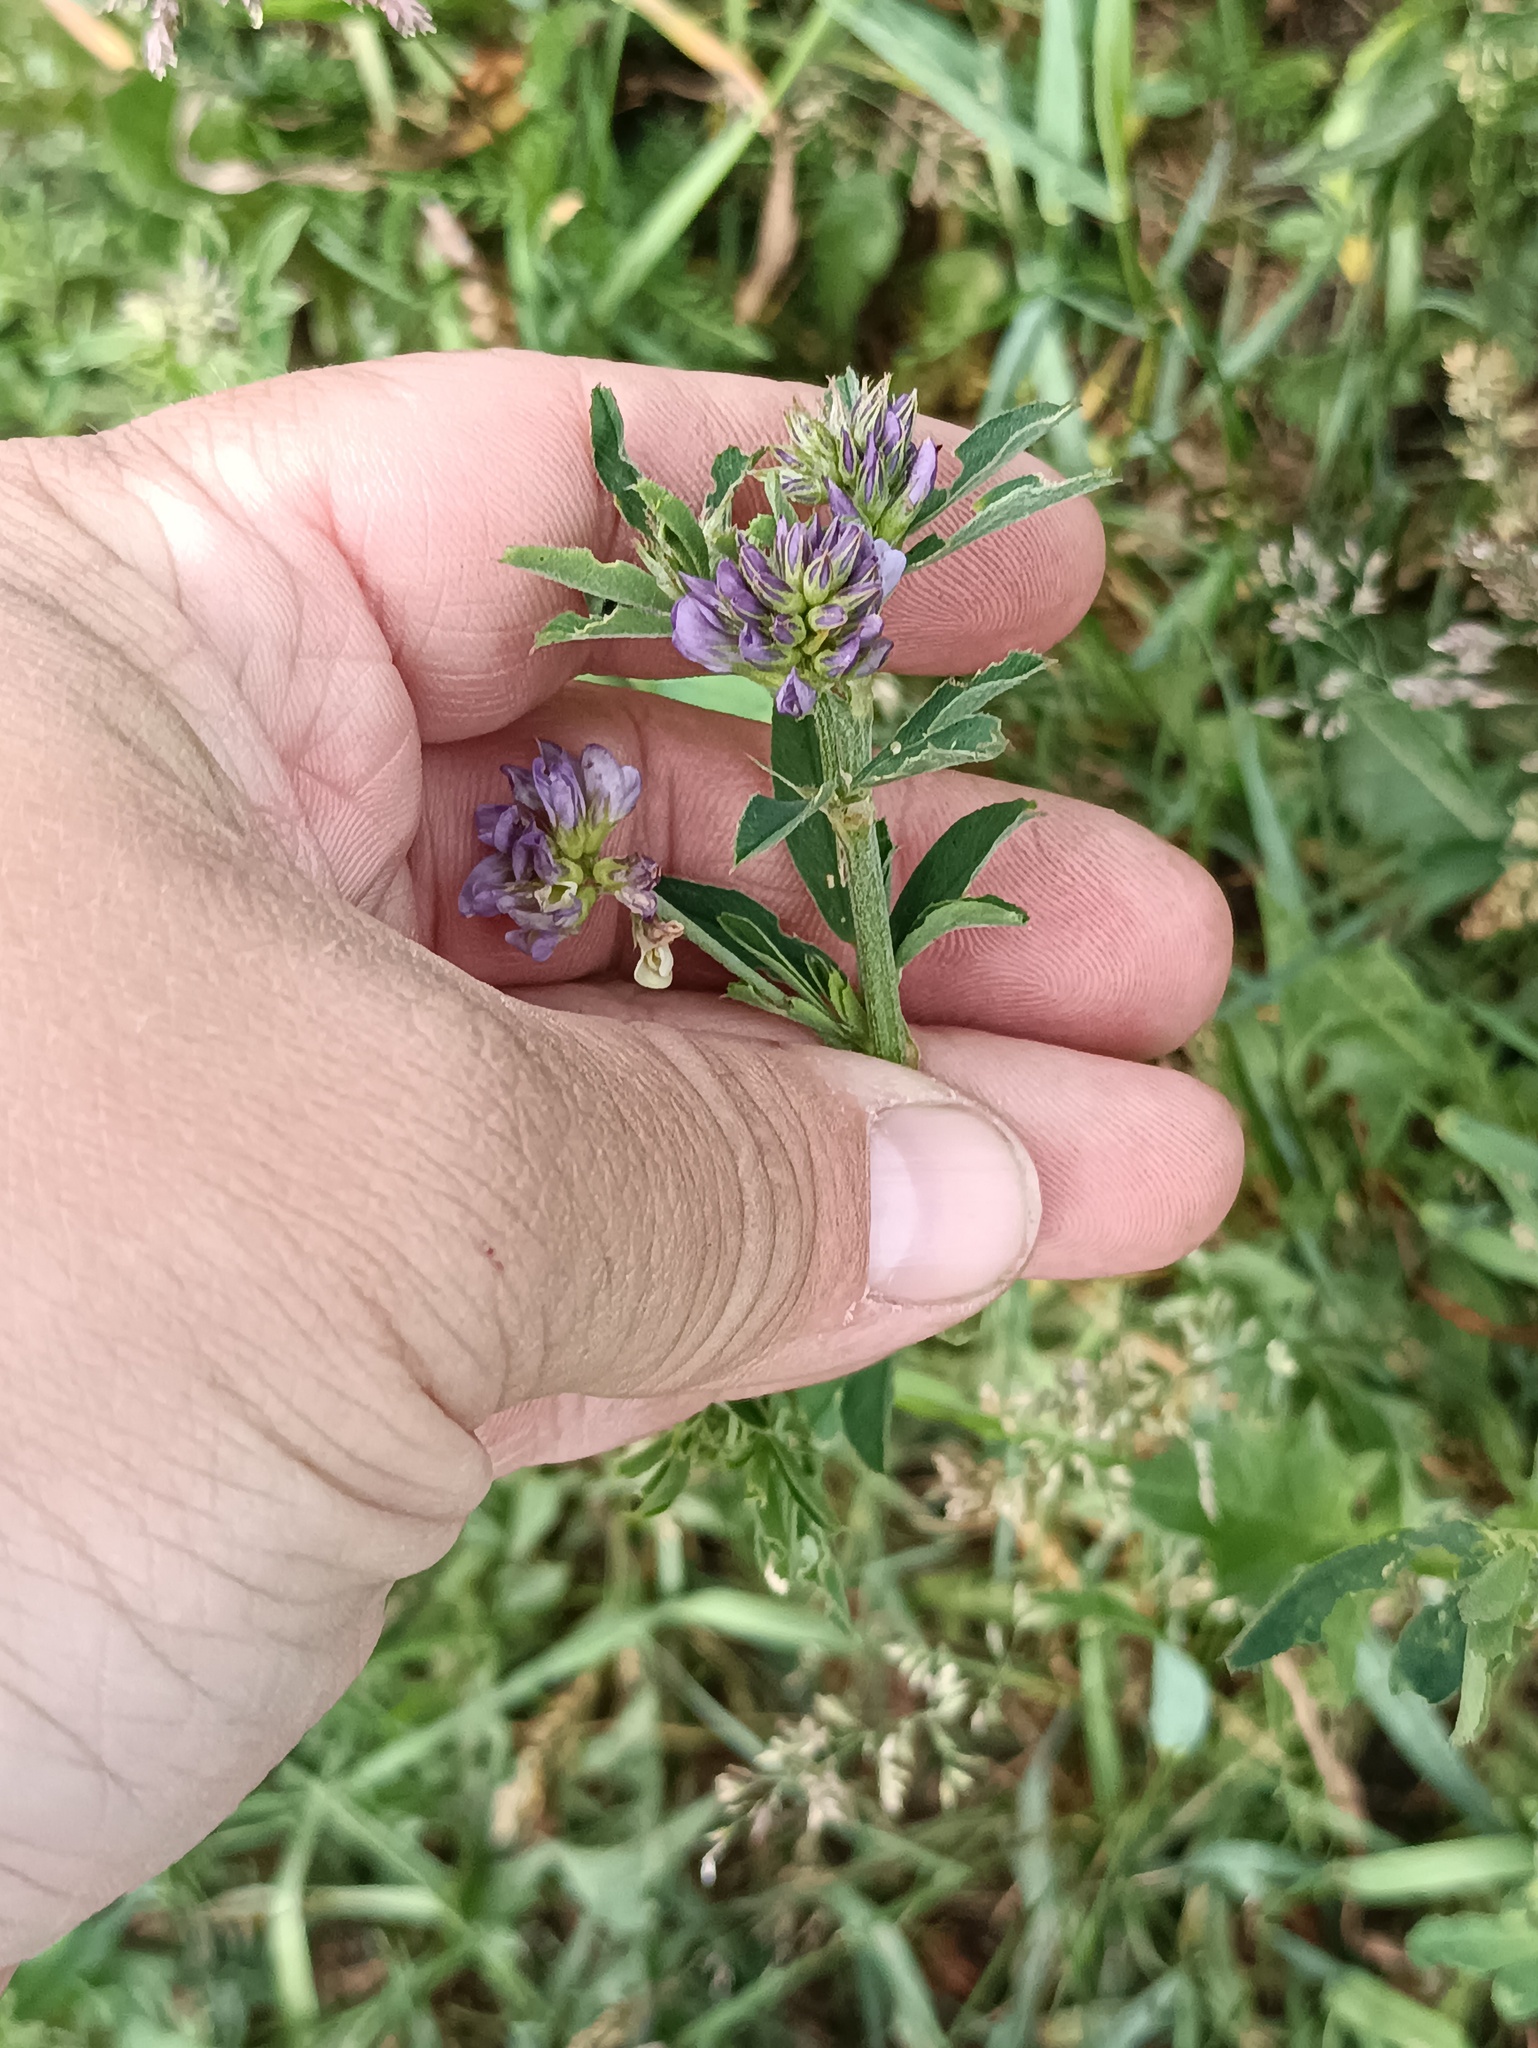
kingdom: Plantae
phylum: Tracheophyta
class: Magnoliopsida
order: Fabales
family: Fabaceae
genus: Medicago
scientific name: Medicago varia
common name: Sand lucerne
